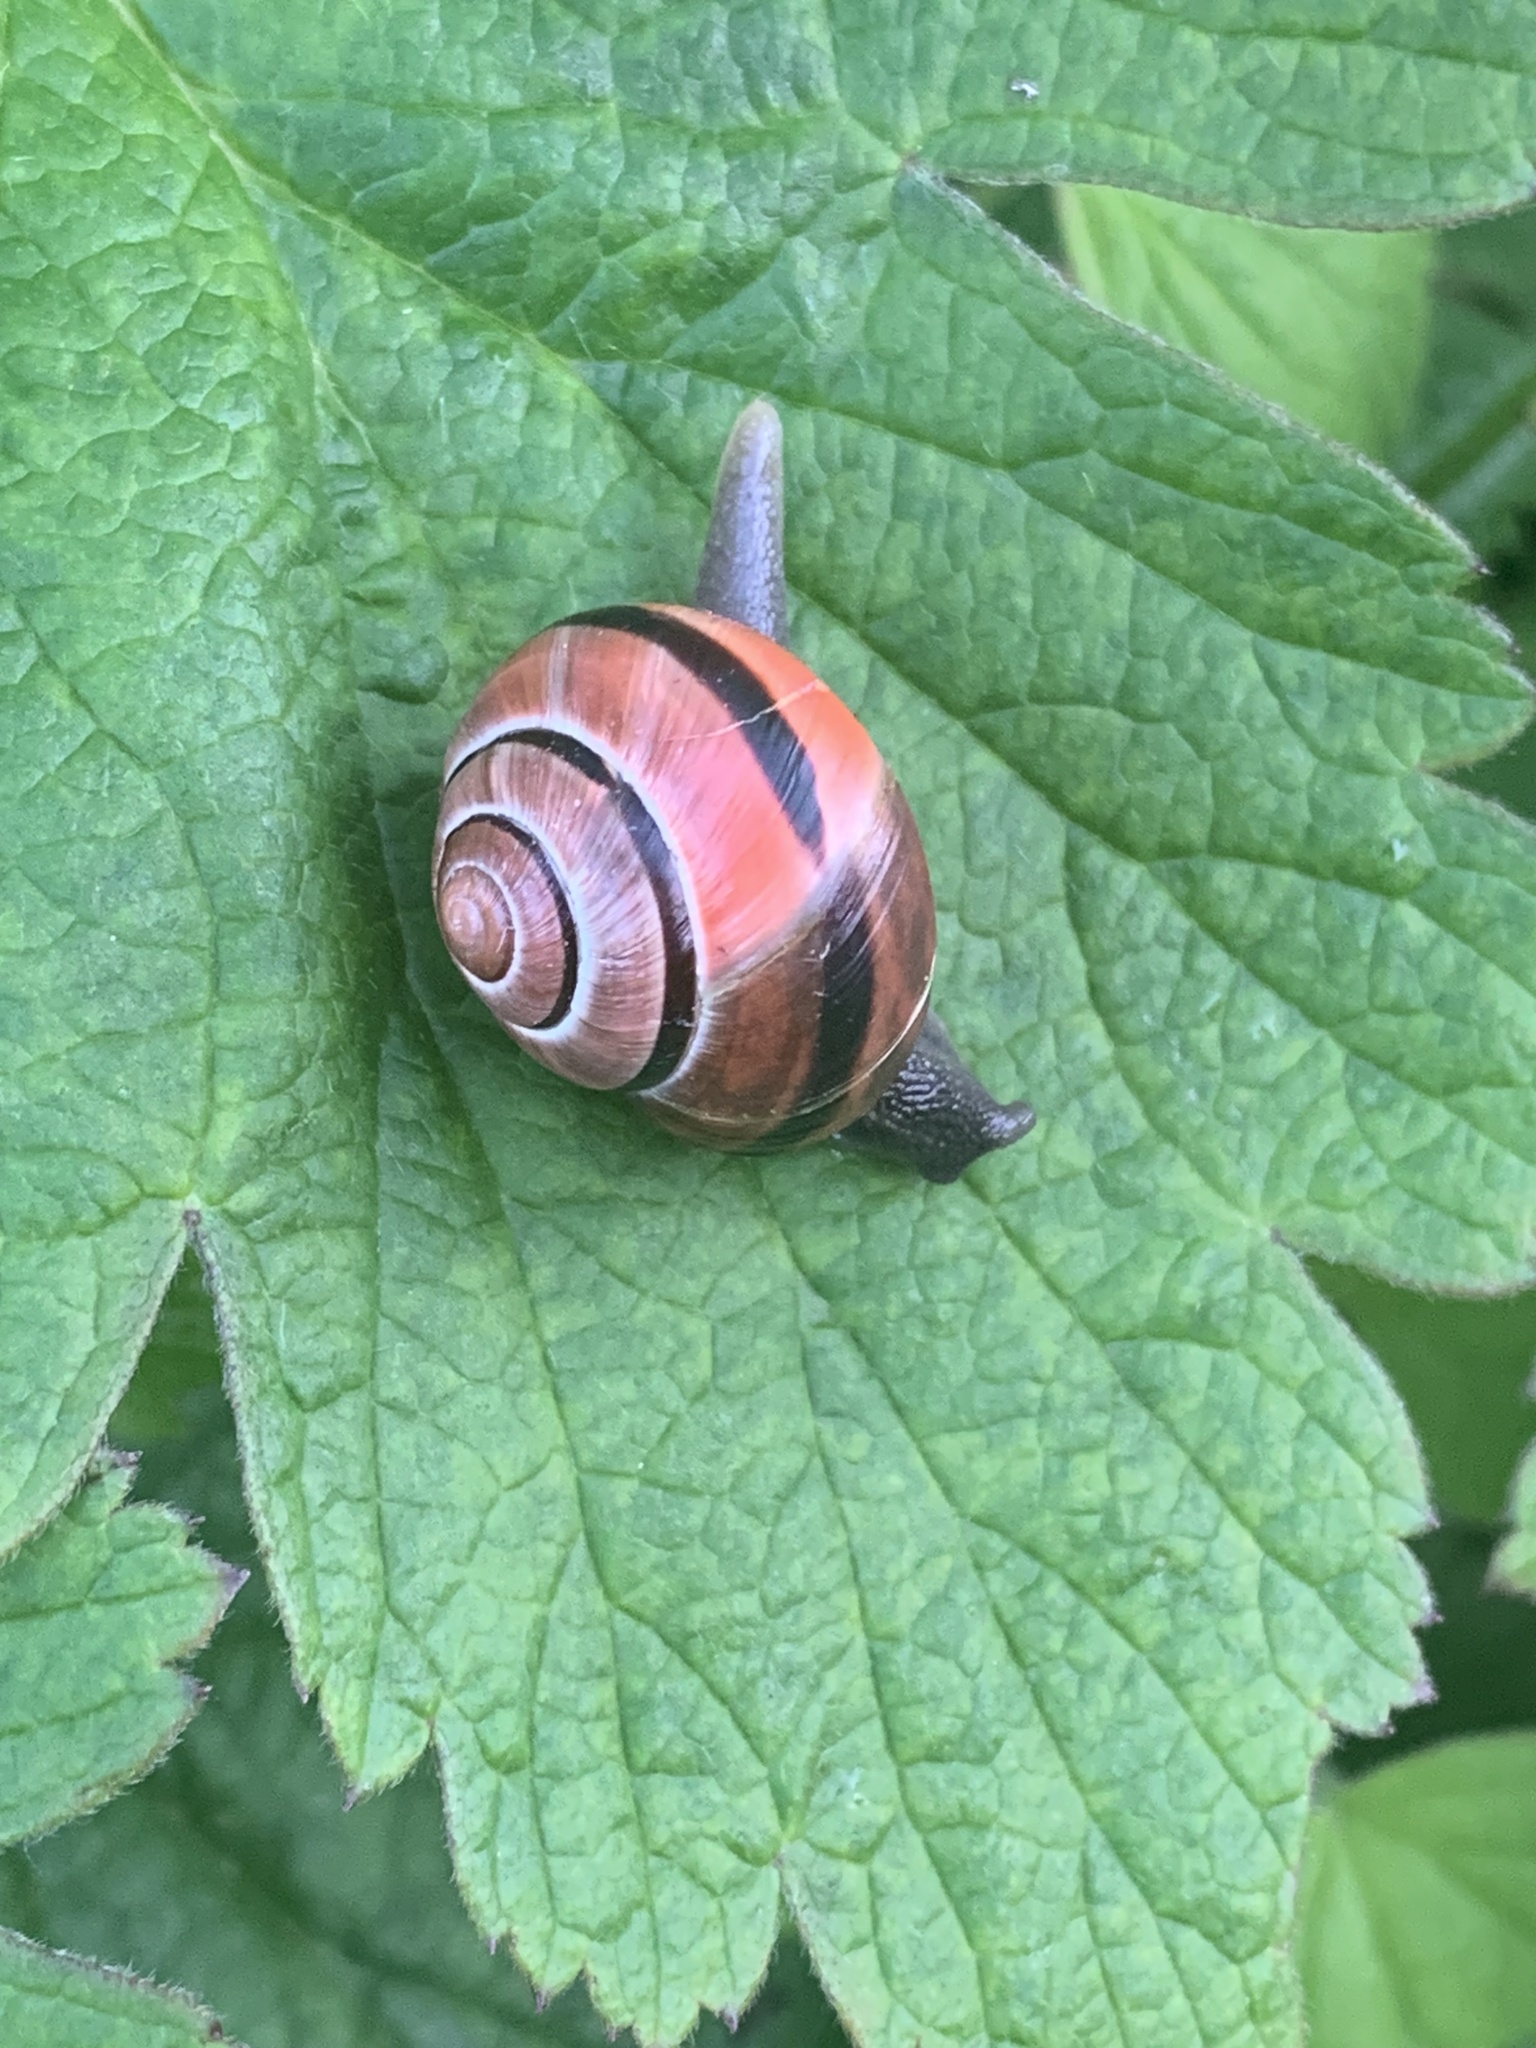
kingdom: Animalia
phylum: Mollusca
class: Gastropoda
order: Stylommatophora
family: Helicidae
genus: Cepaea
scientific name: Cepaea nemoralis
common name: Grovesnail
